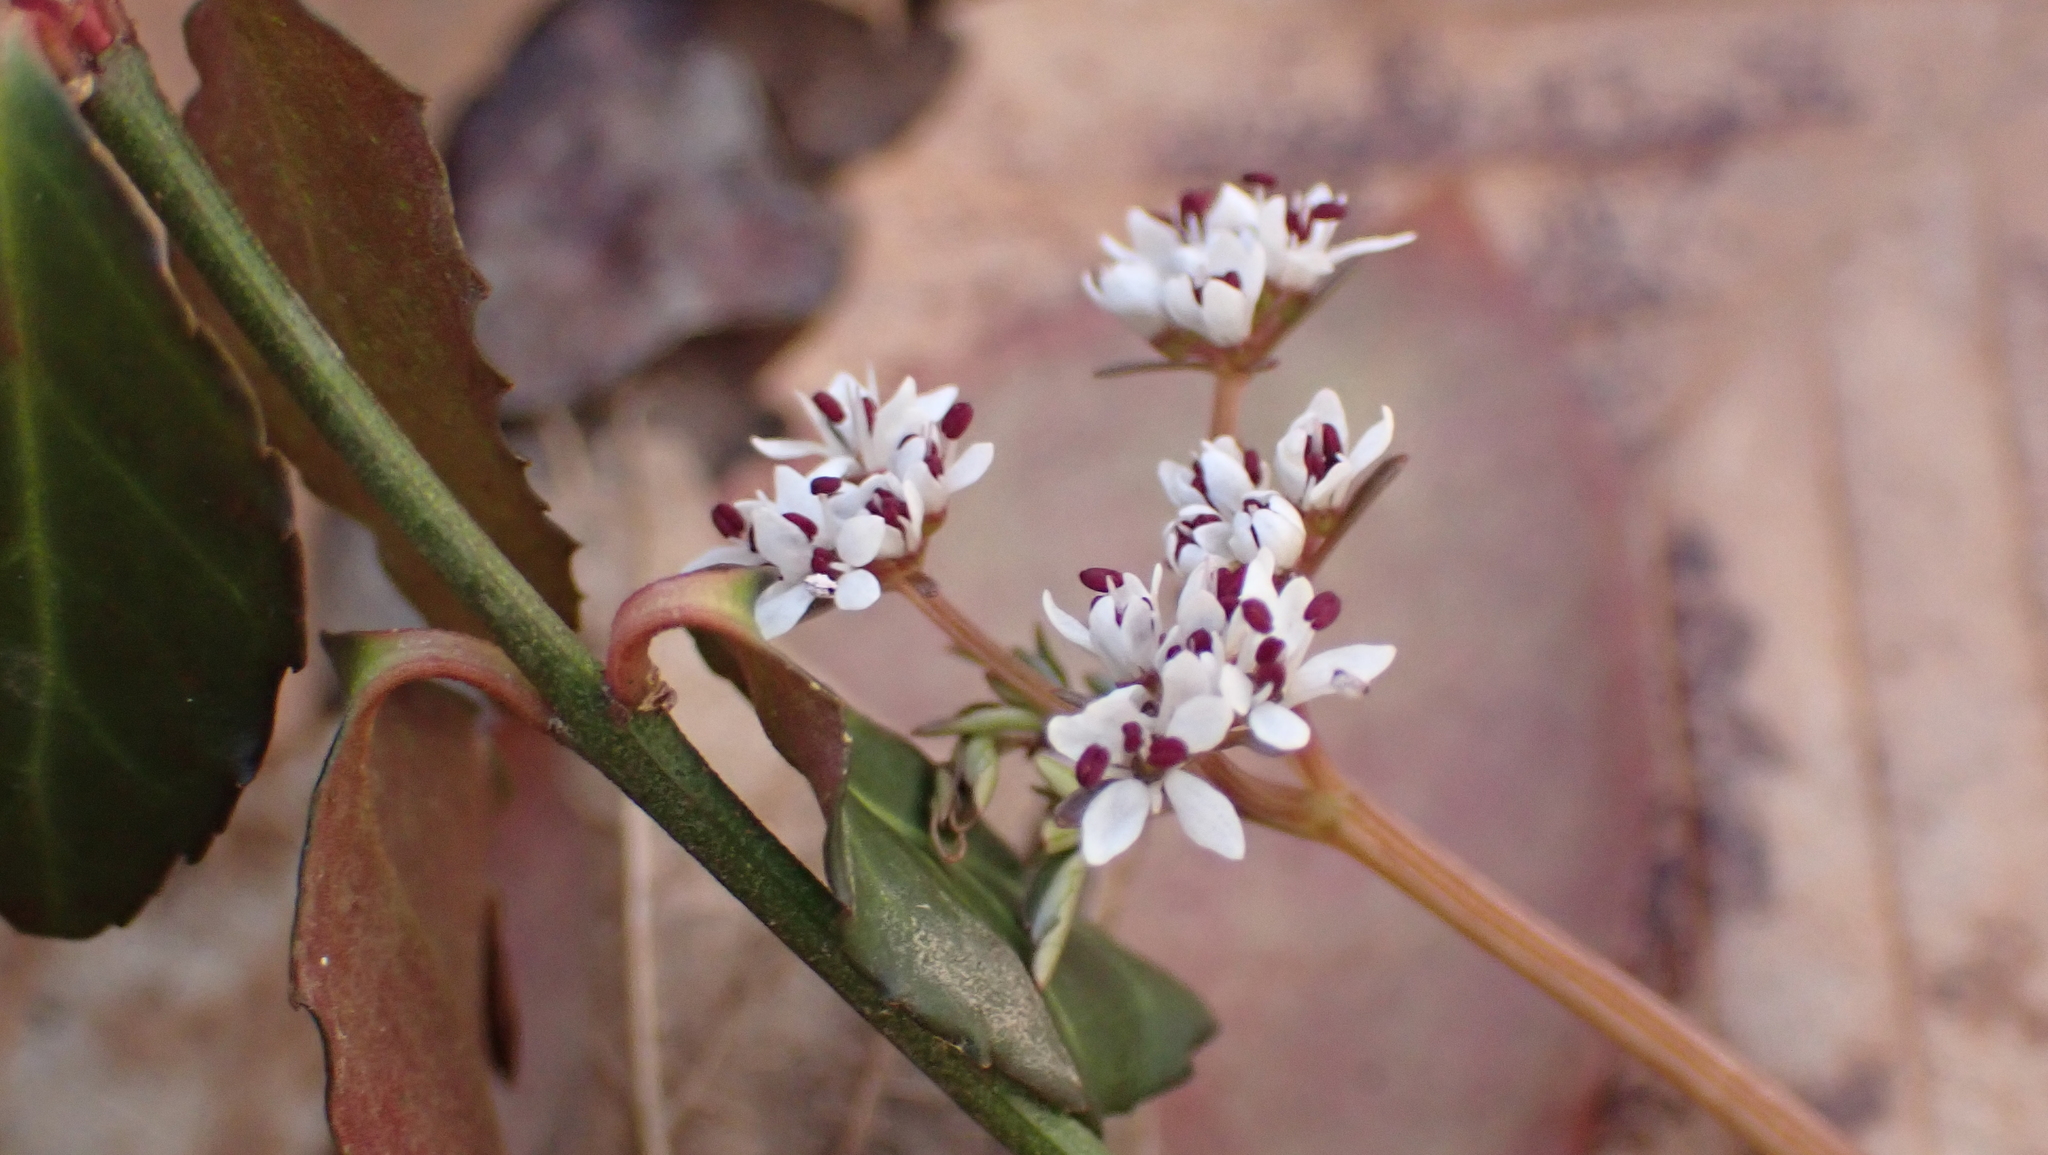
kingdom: Plantae
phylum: Tracheophyta
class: Magnoliopsida
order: Apiales
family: Apiaceae
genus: Erigenia
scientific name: Erigenia bulbosa
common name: Pepper-and-salt
